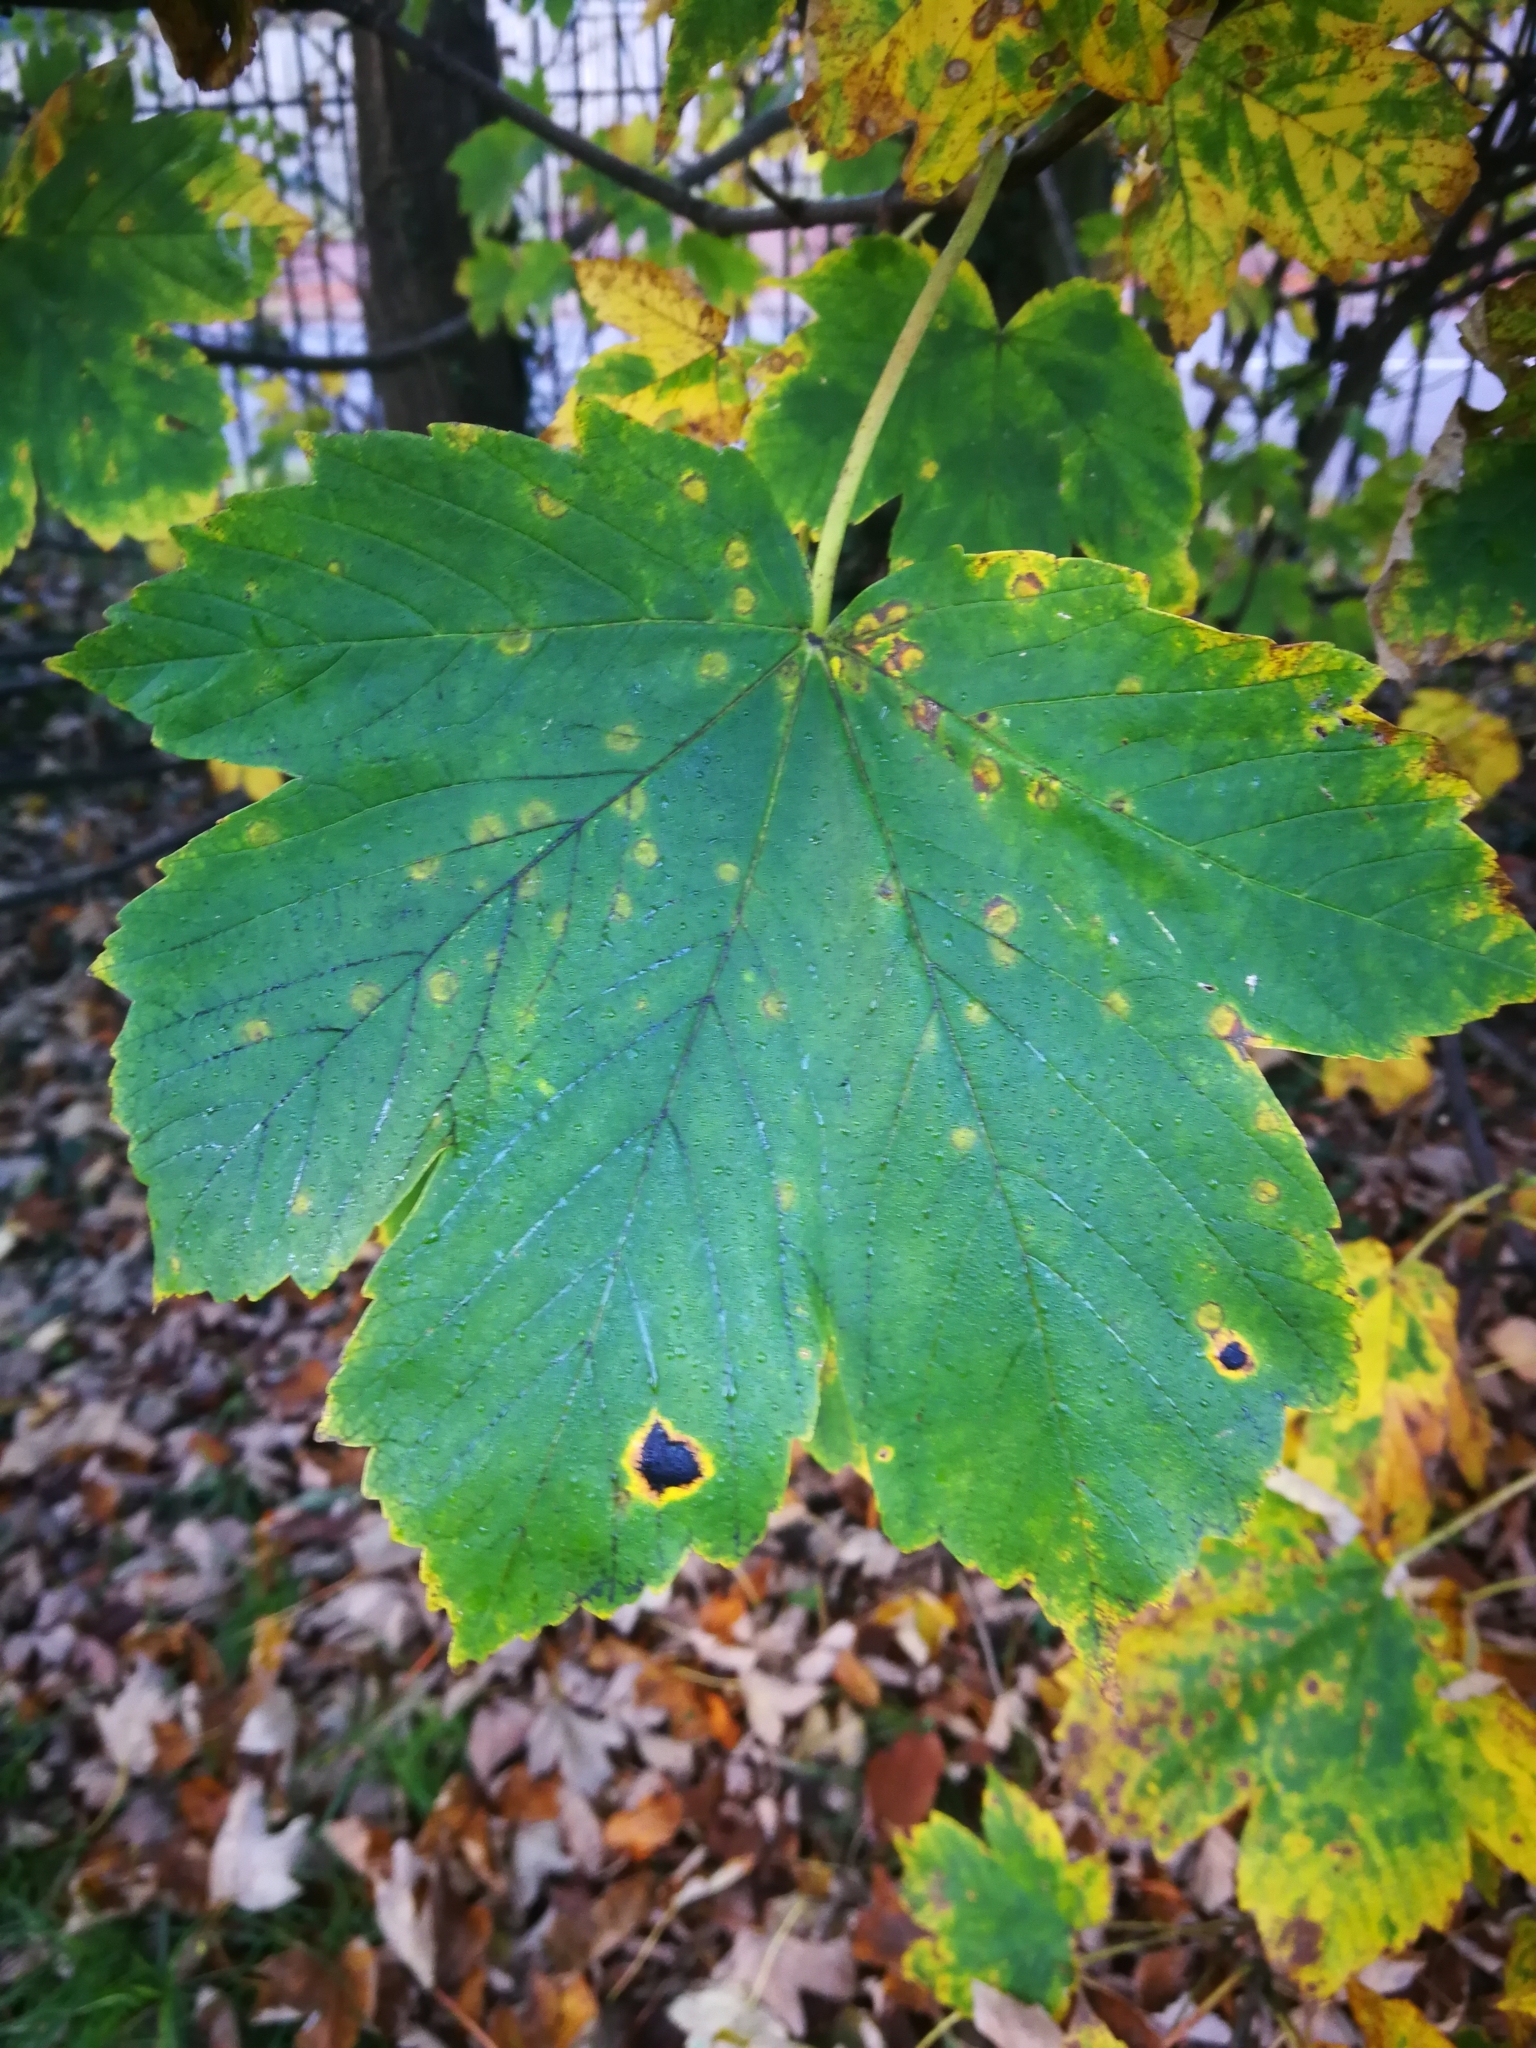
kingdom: Fungi
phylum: Ascomycota
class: Leotiomycetes
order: Rhytismatales
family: Rhytismataceae
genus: Rhytisma
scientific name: Rhytisma acerinum
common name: European tar spot
